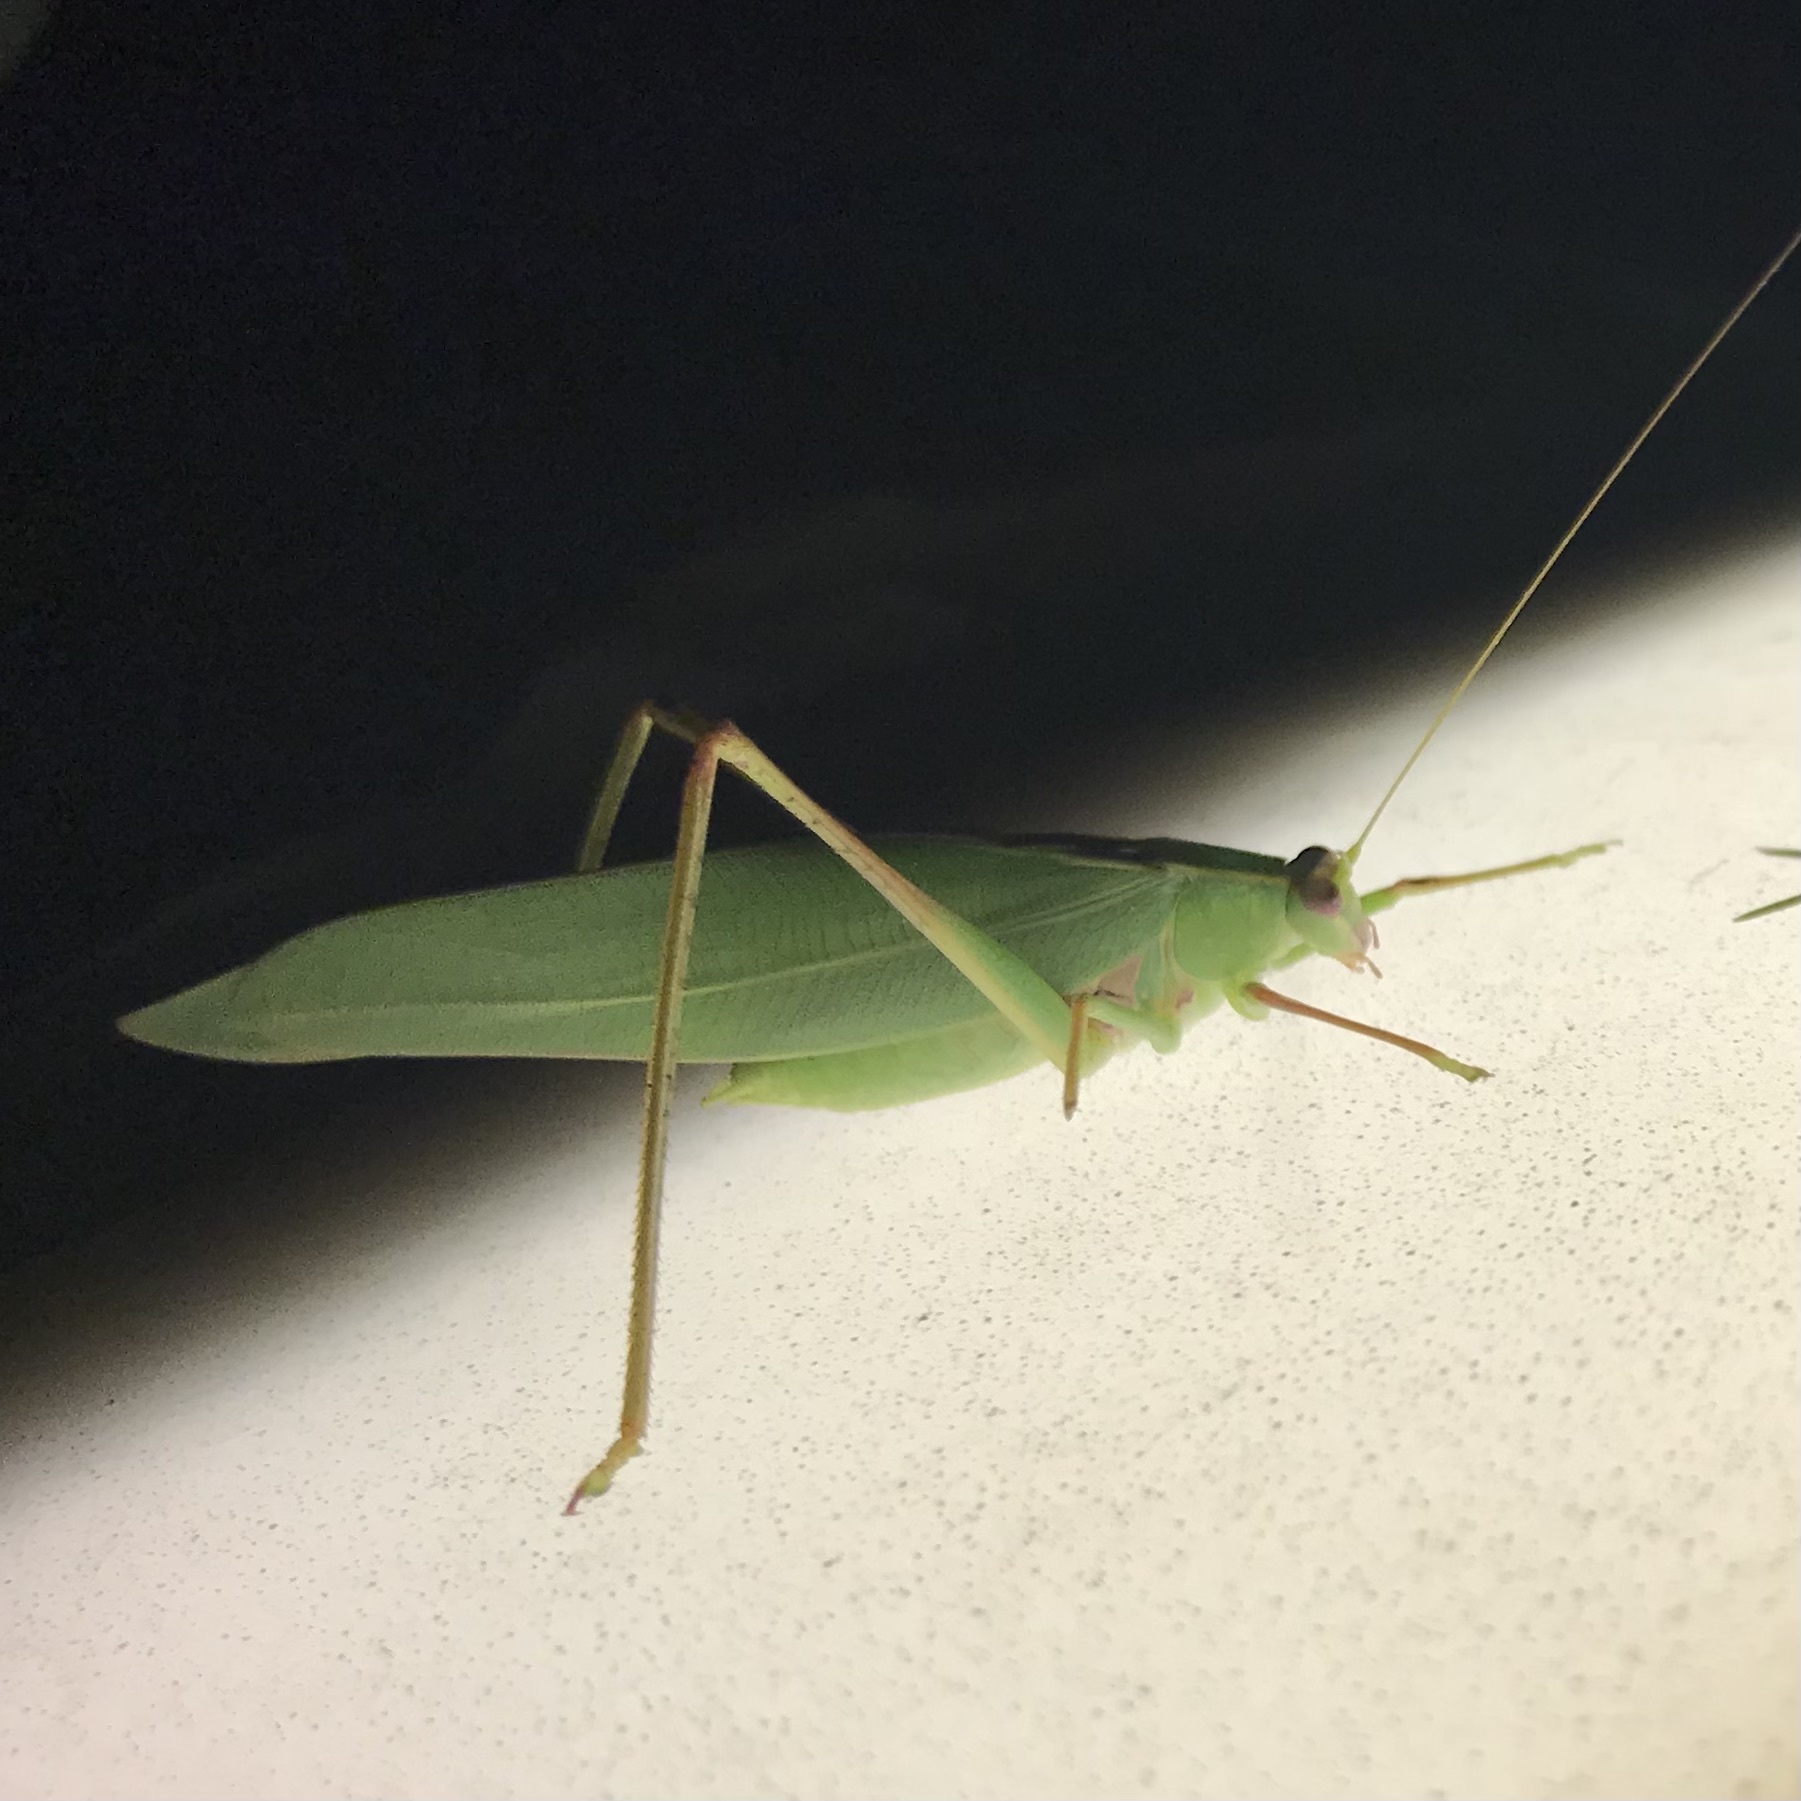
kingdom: Animalia
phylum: Arthropoda
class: Insecta
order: Orthoptera
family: Tettigoniidae
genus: Torbia
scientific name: Torbia viridissima
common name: Non-predaceous gum leaf katydid
